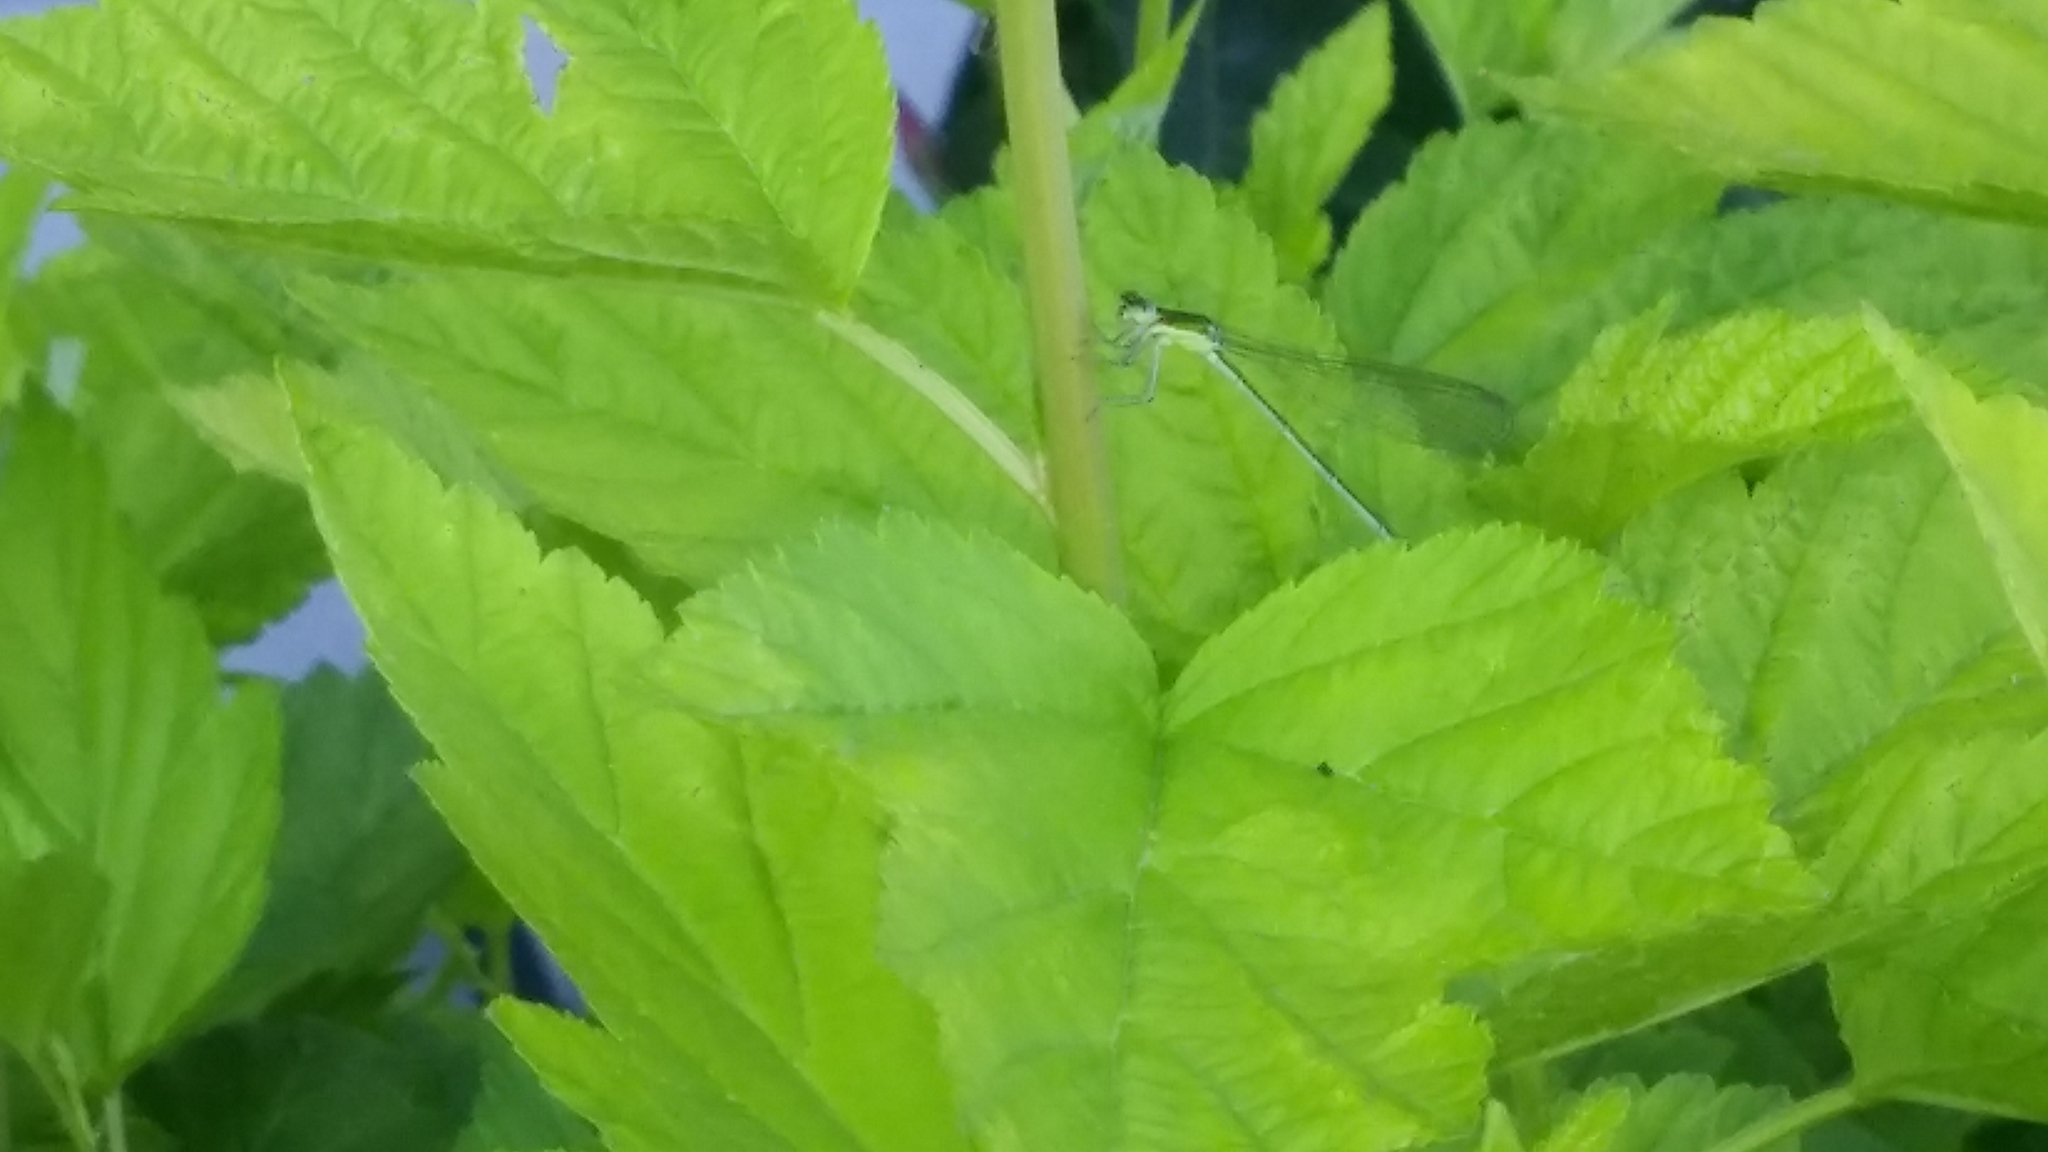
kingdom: Animalia
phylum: Arthropoda
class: Insecta
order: Odonata
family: Coenagrionidae
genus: Nehalennia
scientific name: Nehalennia irene
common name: Sedge sprite
